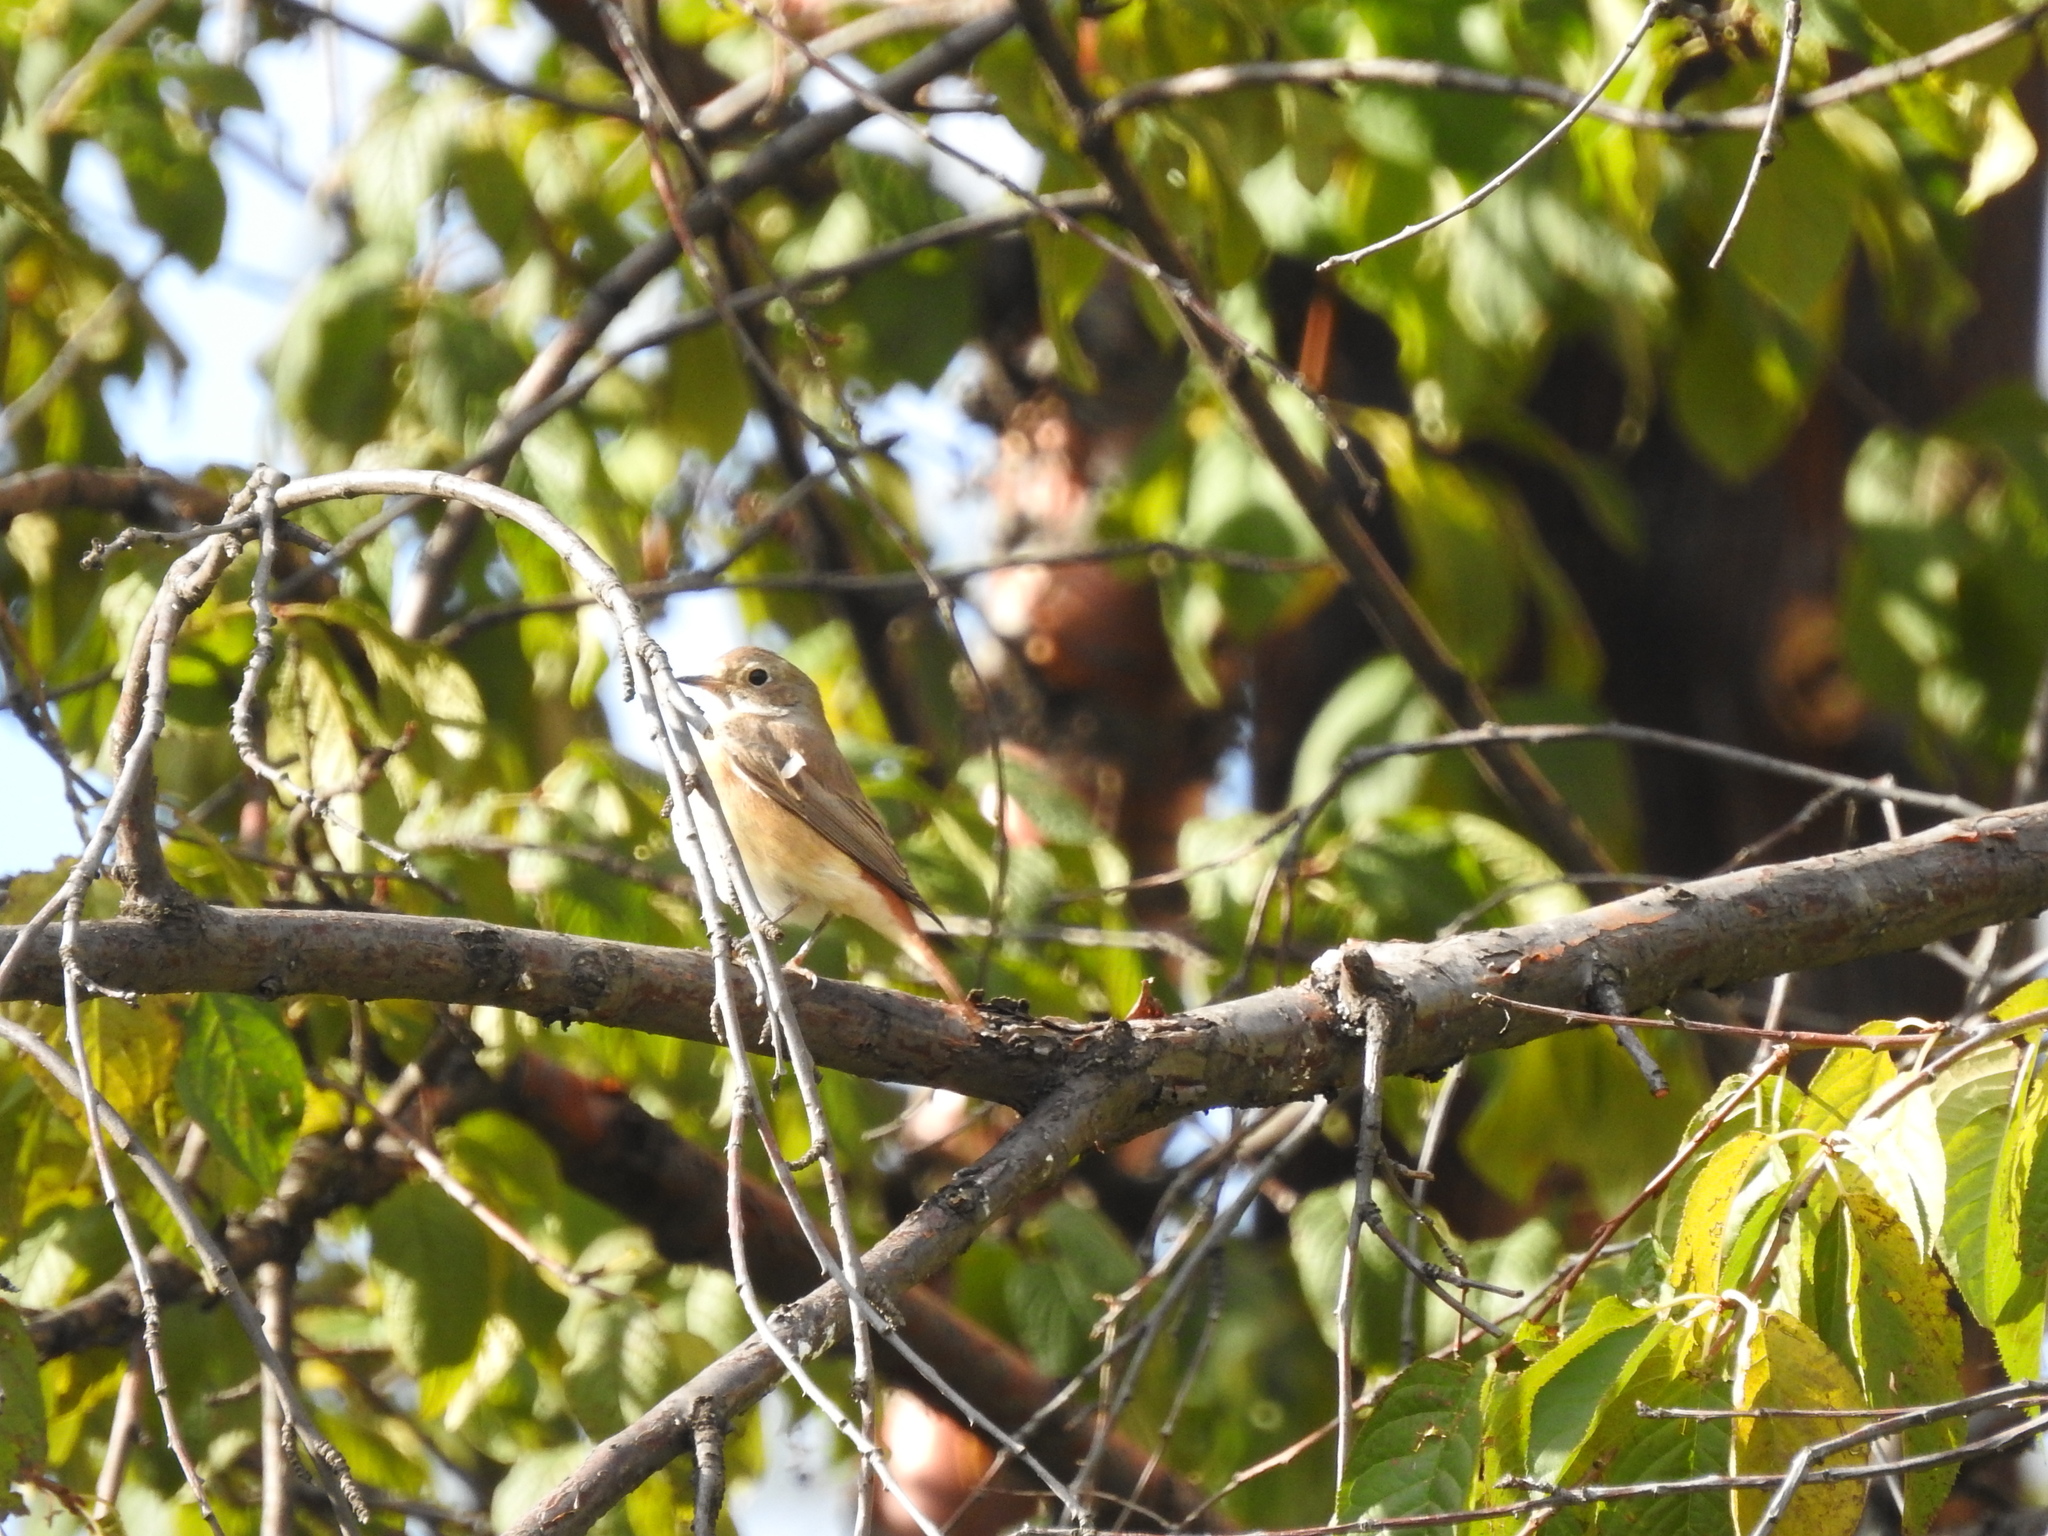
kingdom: Animalia
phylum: Chordata
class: Aves
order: Passeriformes
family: Muscicapidae
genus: Phoenicurus
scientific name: Phoenicurus phoenicurus
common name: Common redstart
